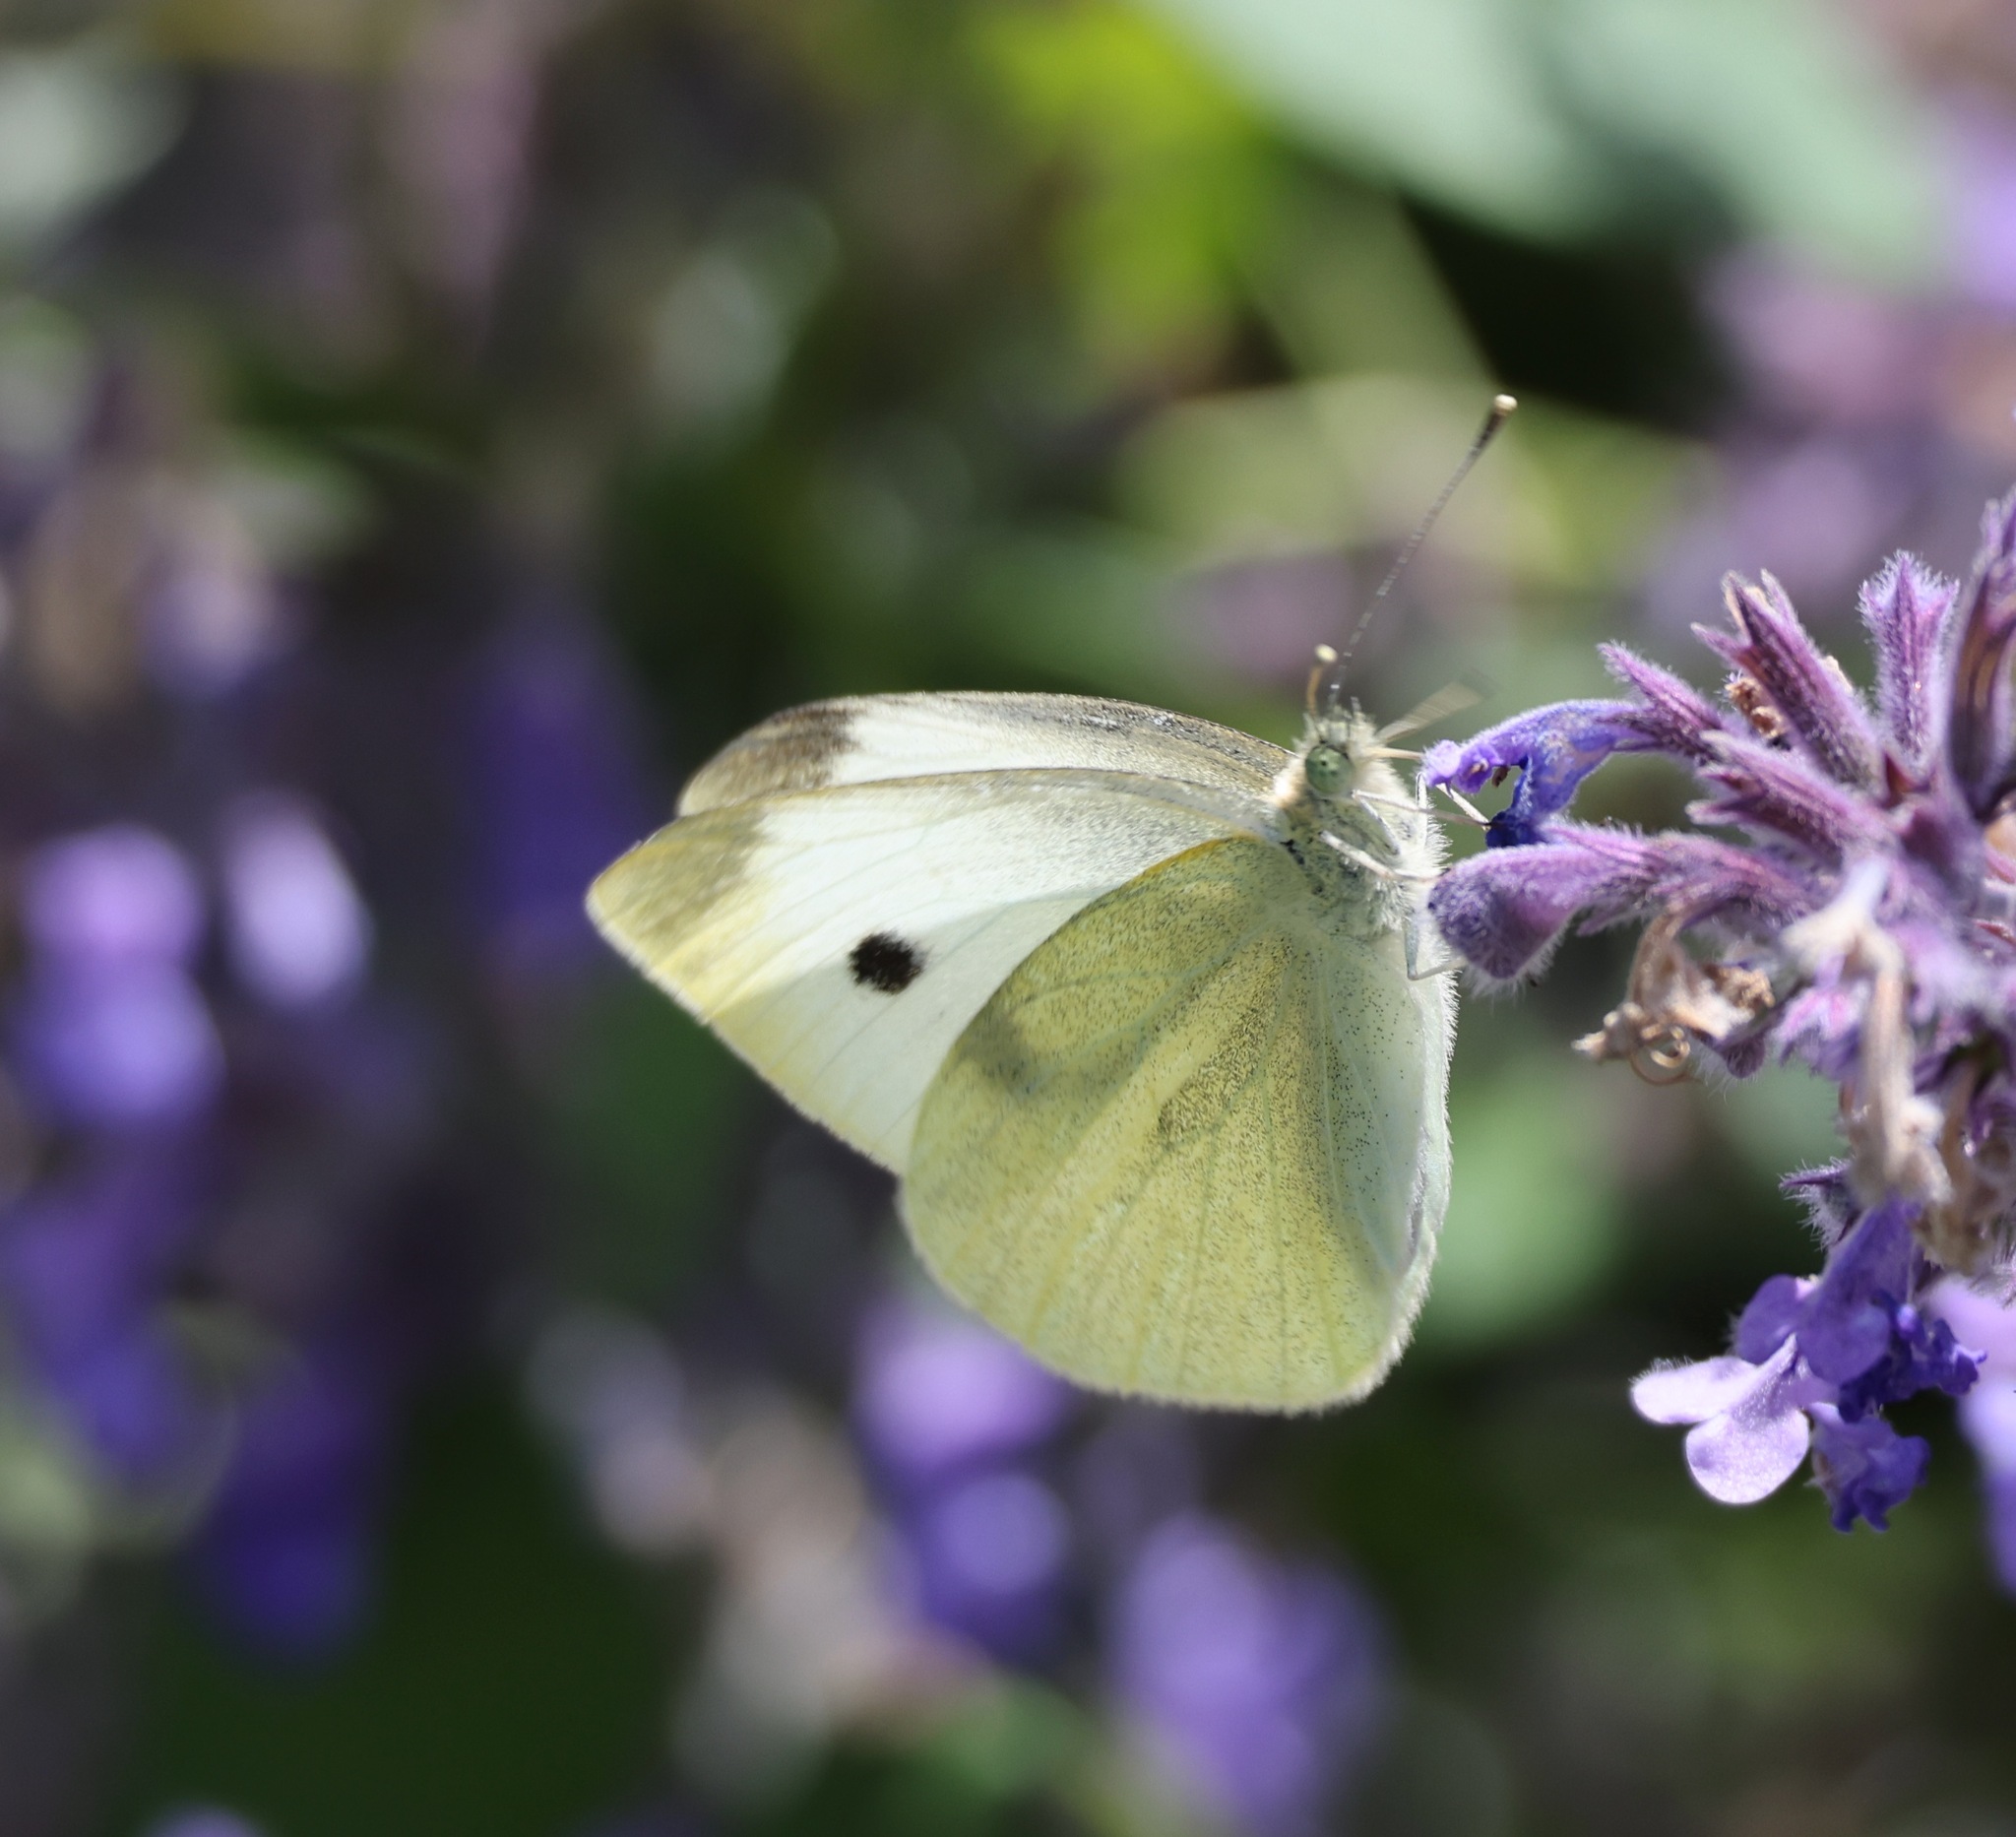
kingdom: Animalia
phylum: Arthropoda
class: Insecta
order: Lepidoptera
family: Pieridae
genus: Pieris
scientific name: Pieris rapae
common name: Small white
